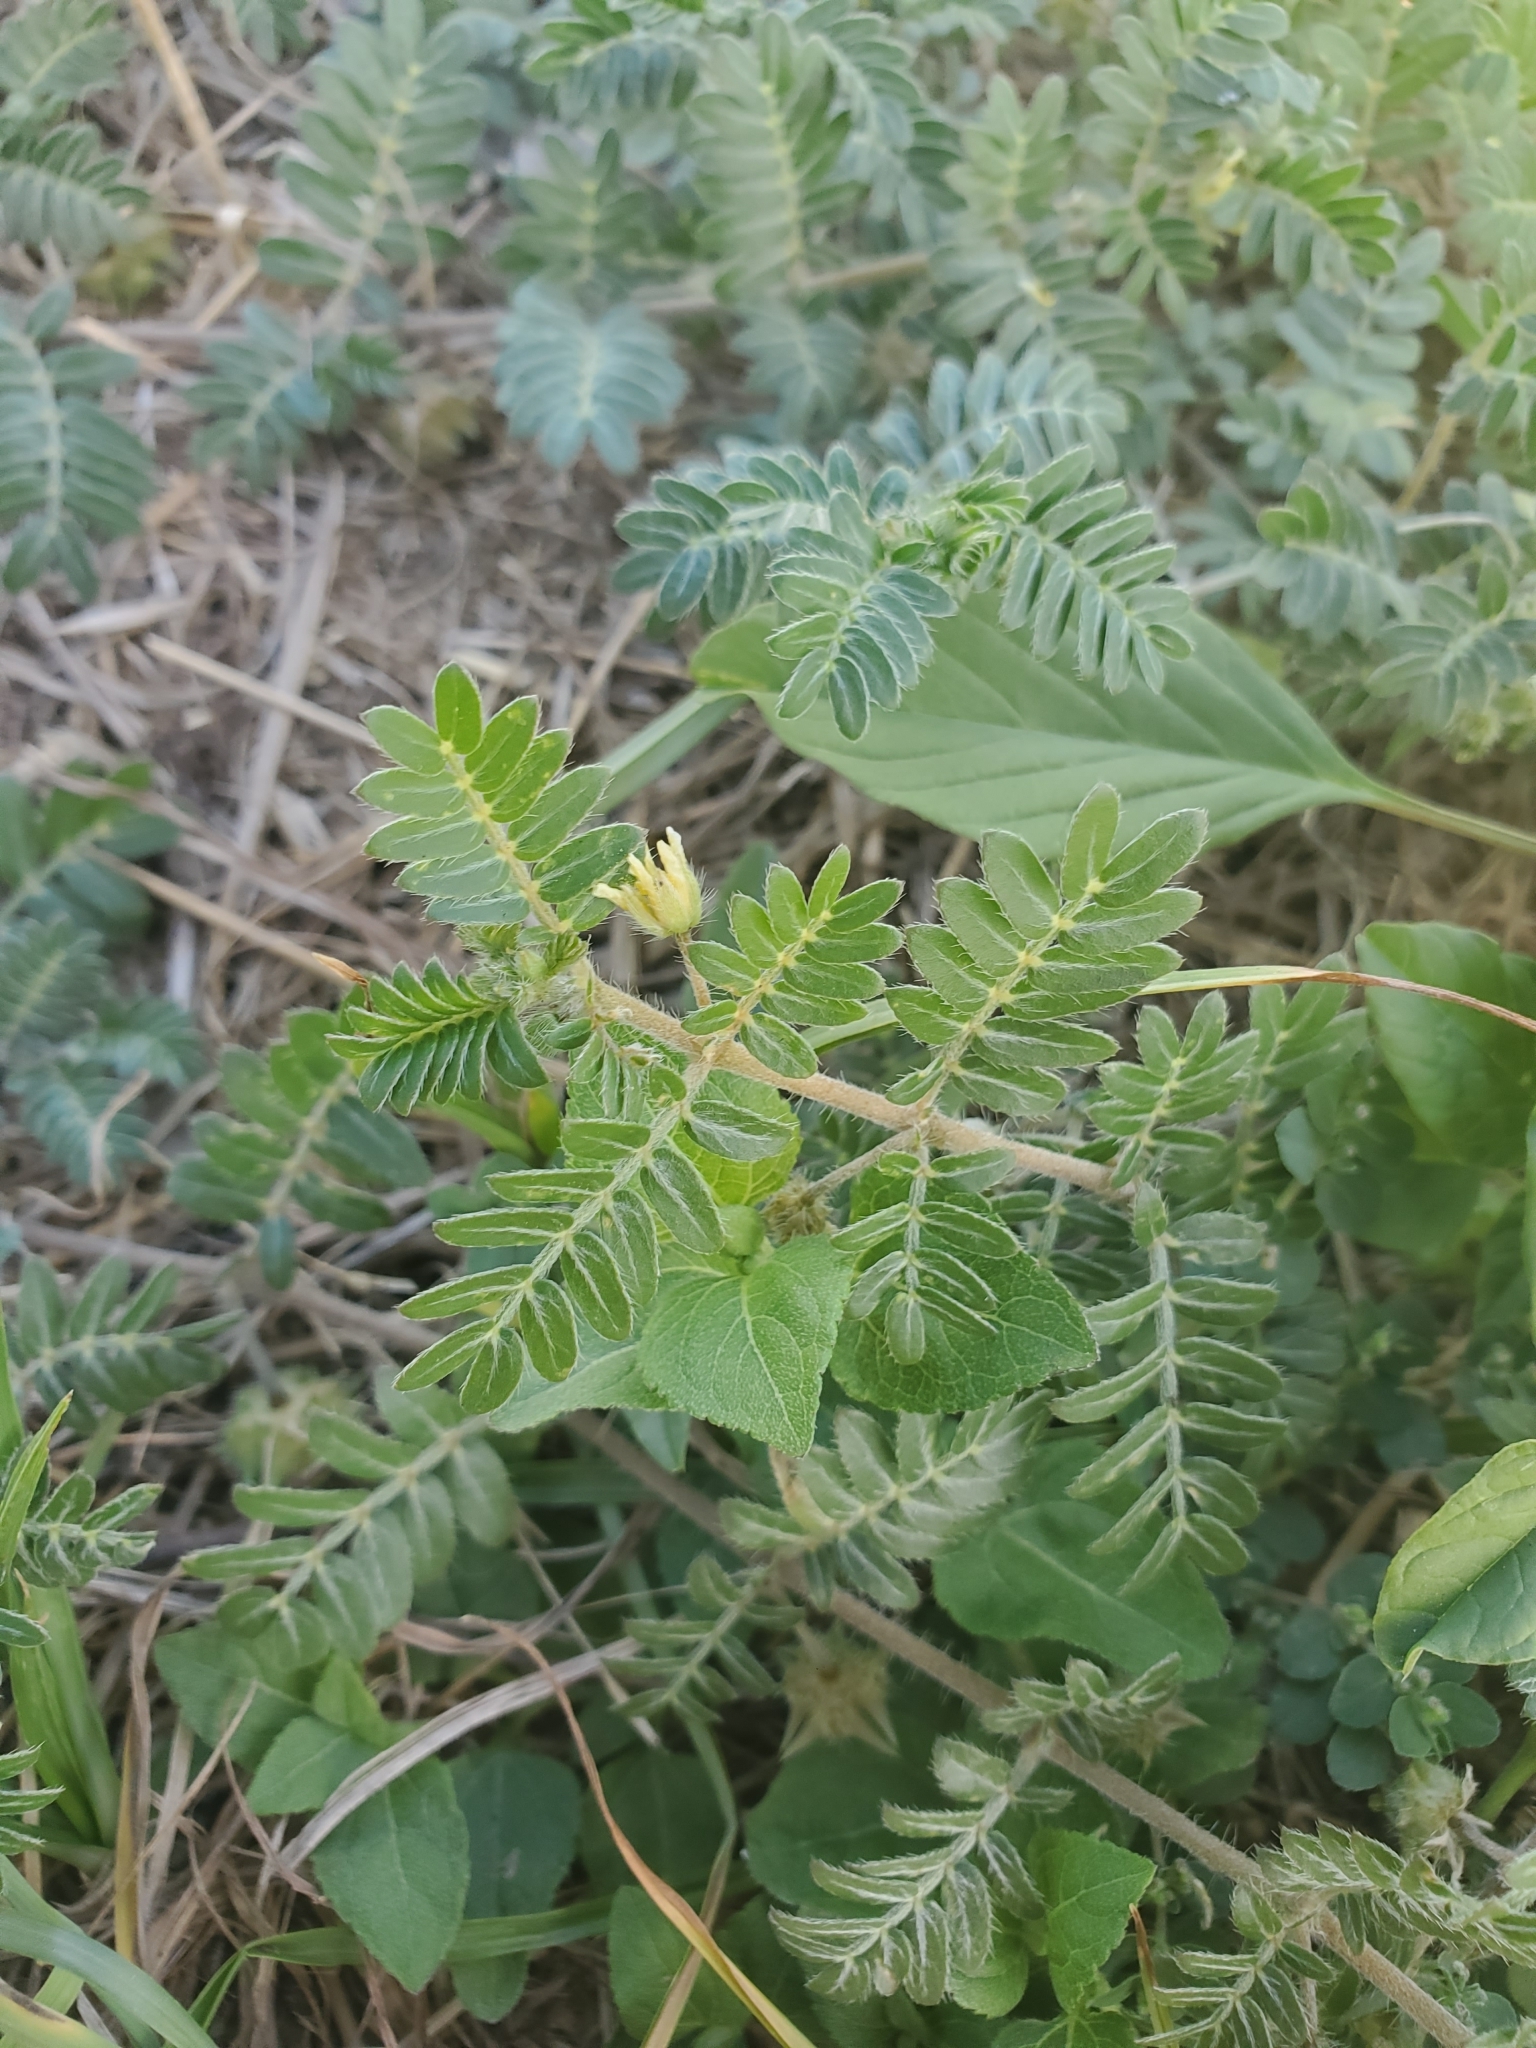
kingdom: Plantae
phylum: Tracheophyta
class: Magnoliopsida
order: Zygophyllales
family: Zygophyllaceae
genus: Tribulus
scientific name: Tribulus terrestris
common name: Puncturevine
